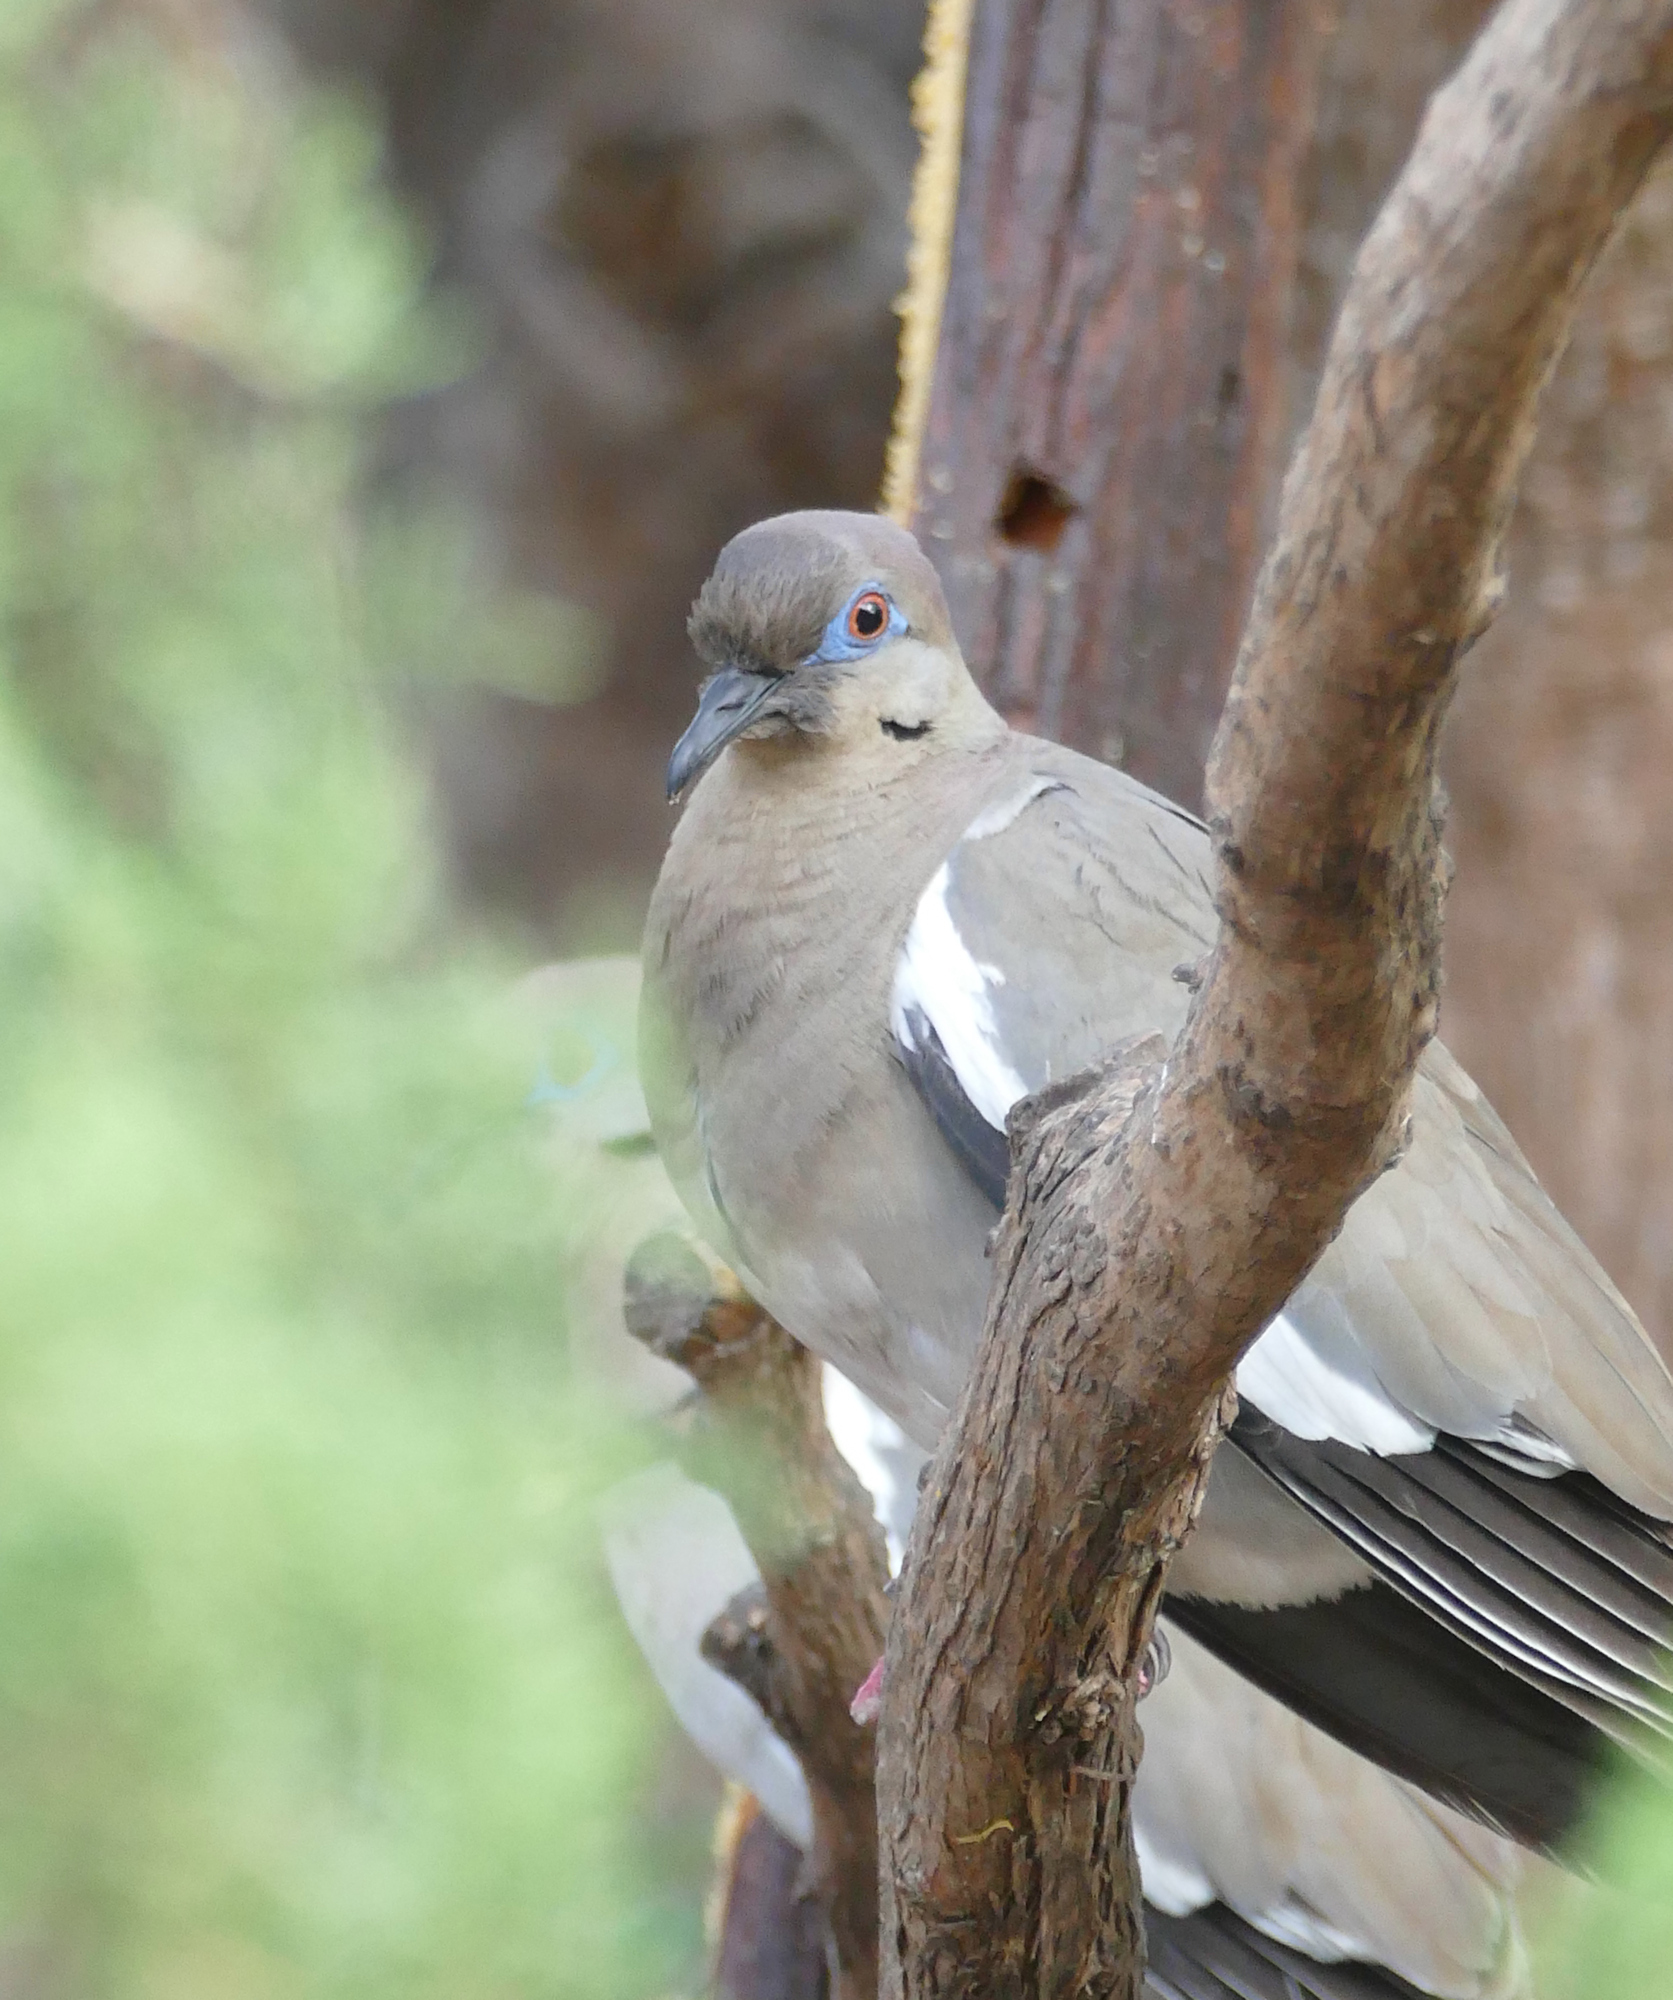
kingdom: Animalia
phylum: Chordata
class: Aves
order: Columbiformes
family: Columbidae
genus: Zenaida
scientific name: Zenaida asiatica
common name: White-winged dove
